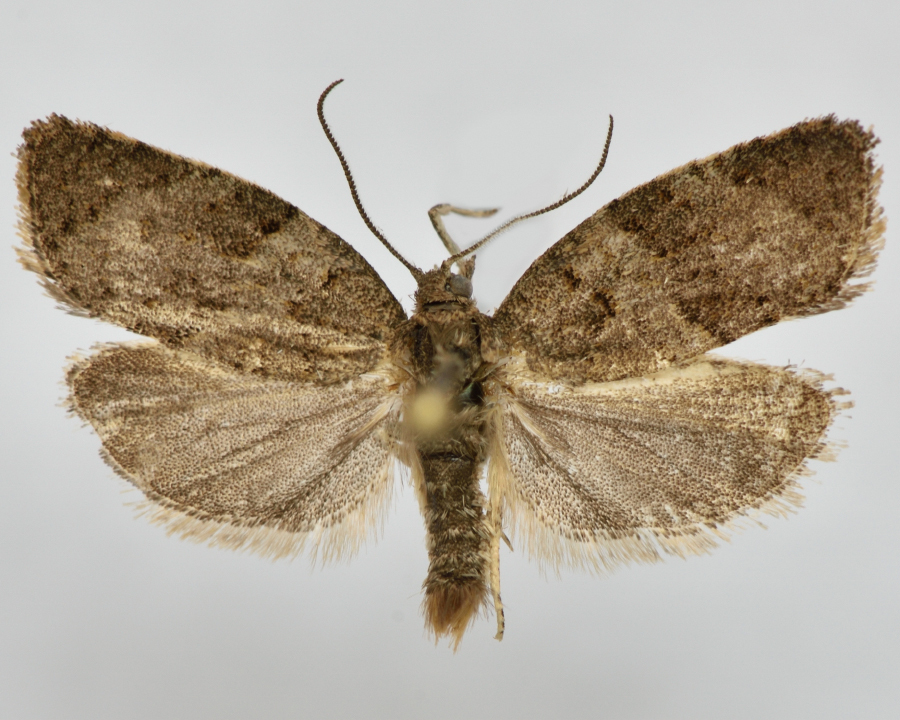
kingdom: Animalia
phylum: Arthropoda
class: Insecta
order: Lepidoptera
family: Tortricidae
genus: Syndemis
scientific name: Syndemis musculana
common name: Dark-barred twist
